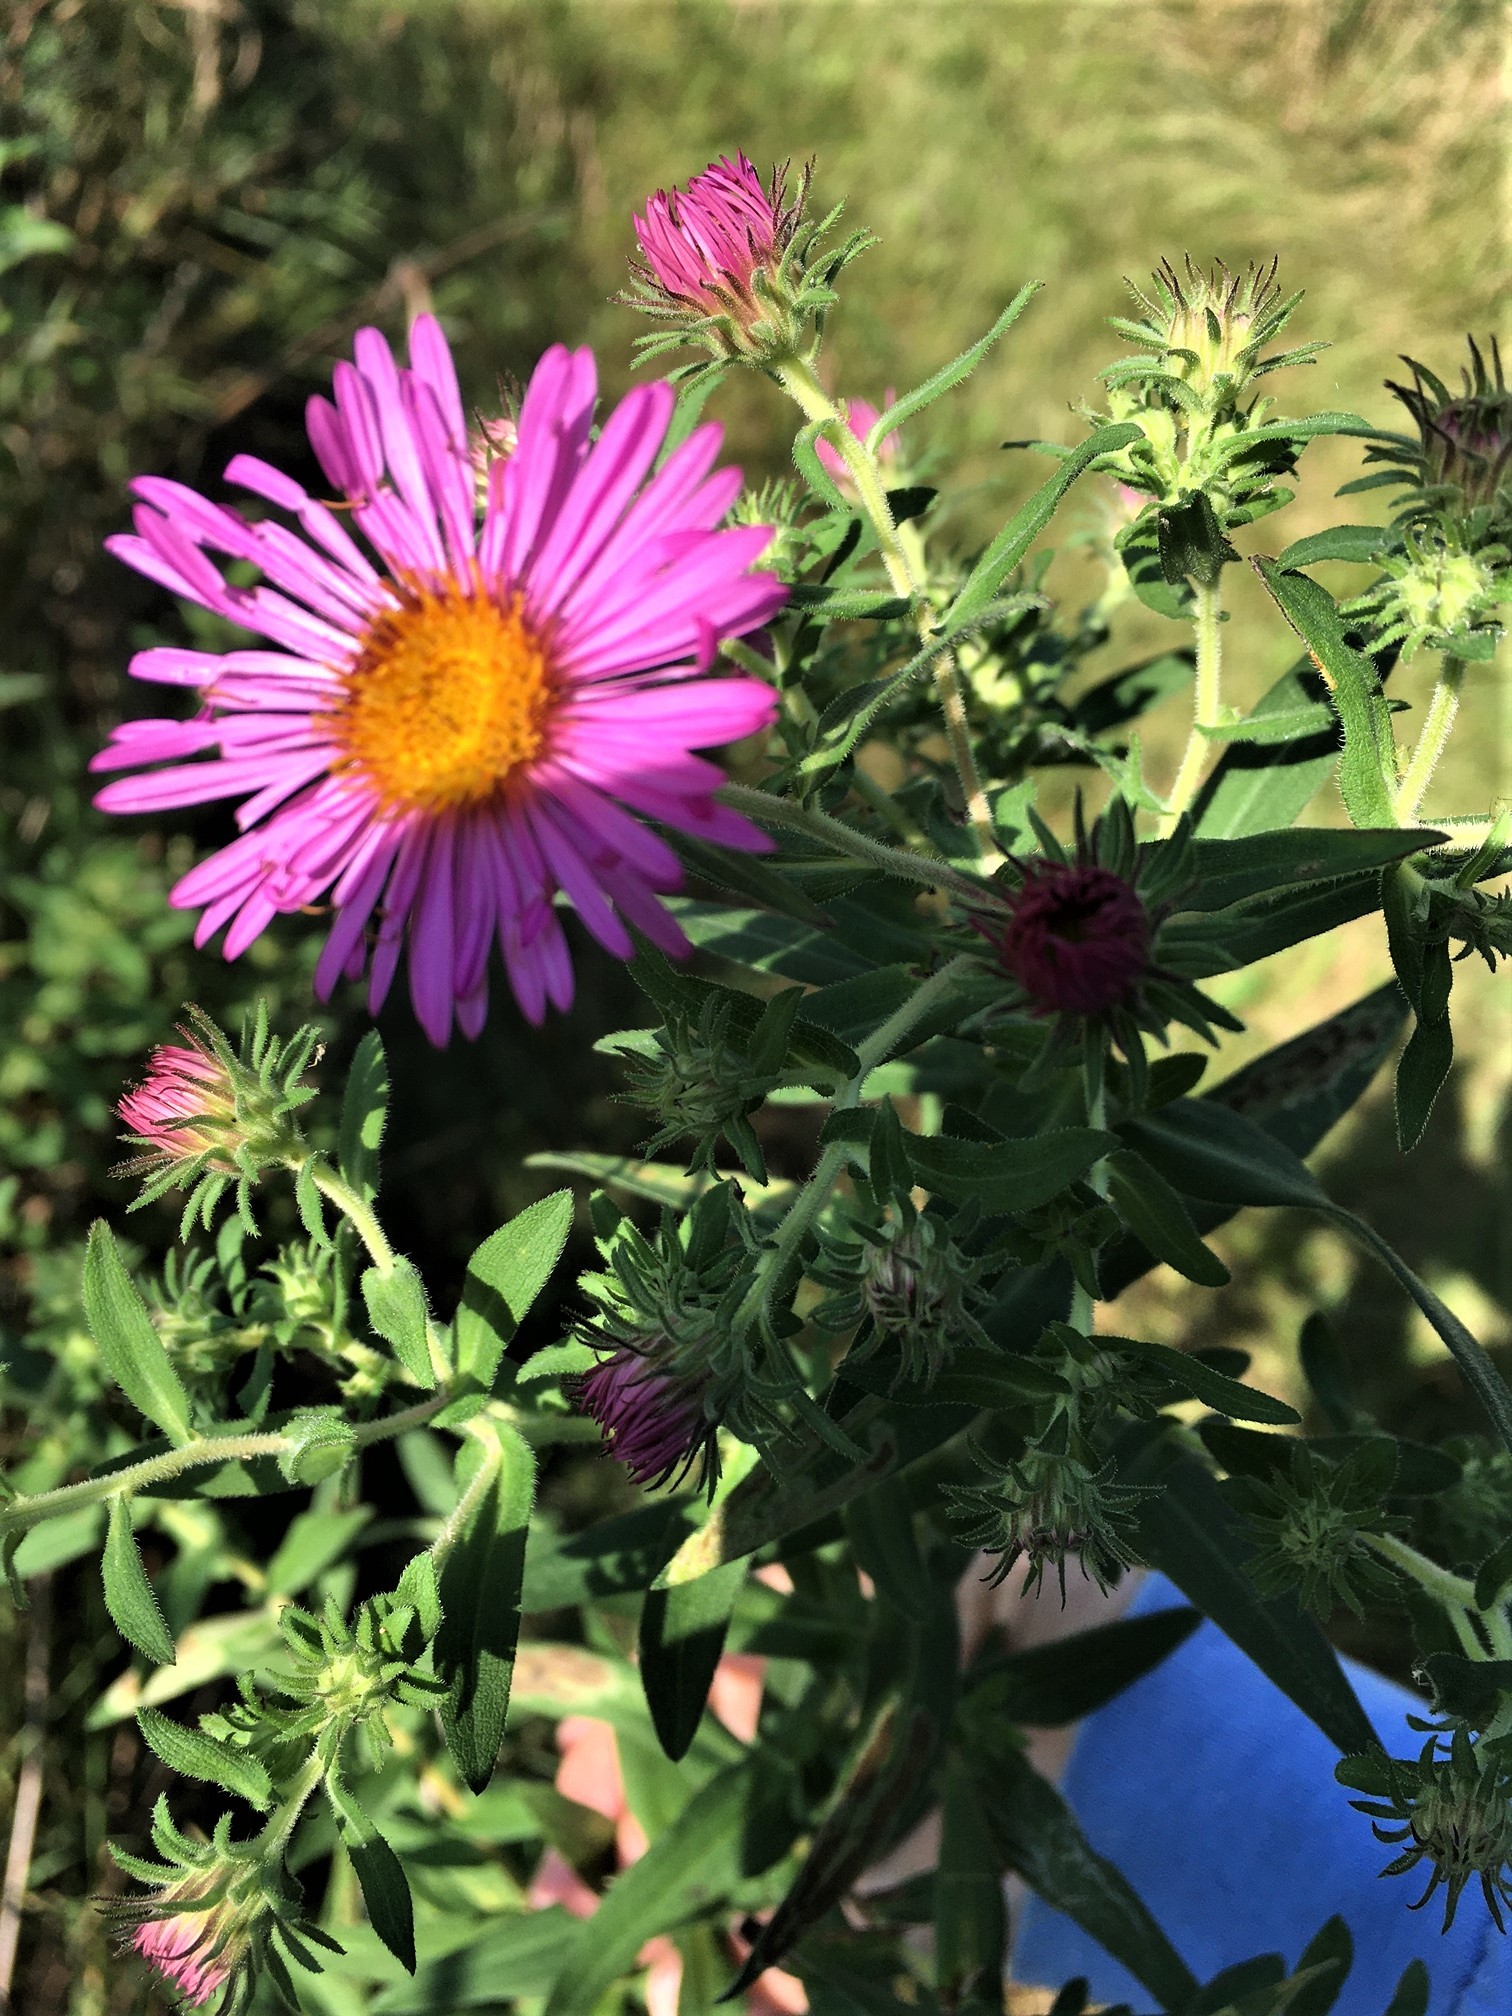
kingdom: Plantae
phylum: Tracheophyta
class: Magnoliopsida
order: Asterales
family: Asteraceae
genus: Symphyotrichum
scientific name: Symphyotrichum novae-angliae
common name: Michaelmas daisy
